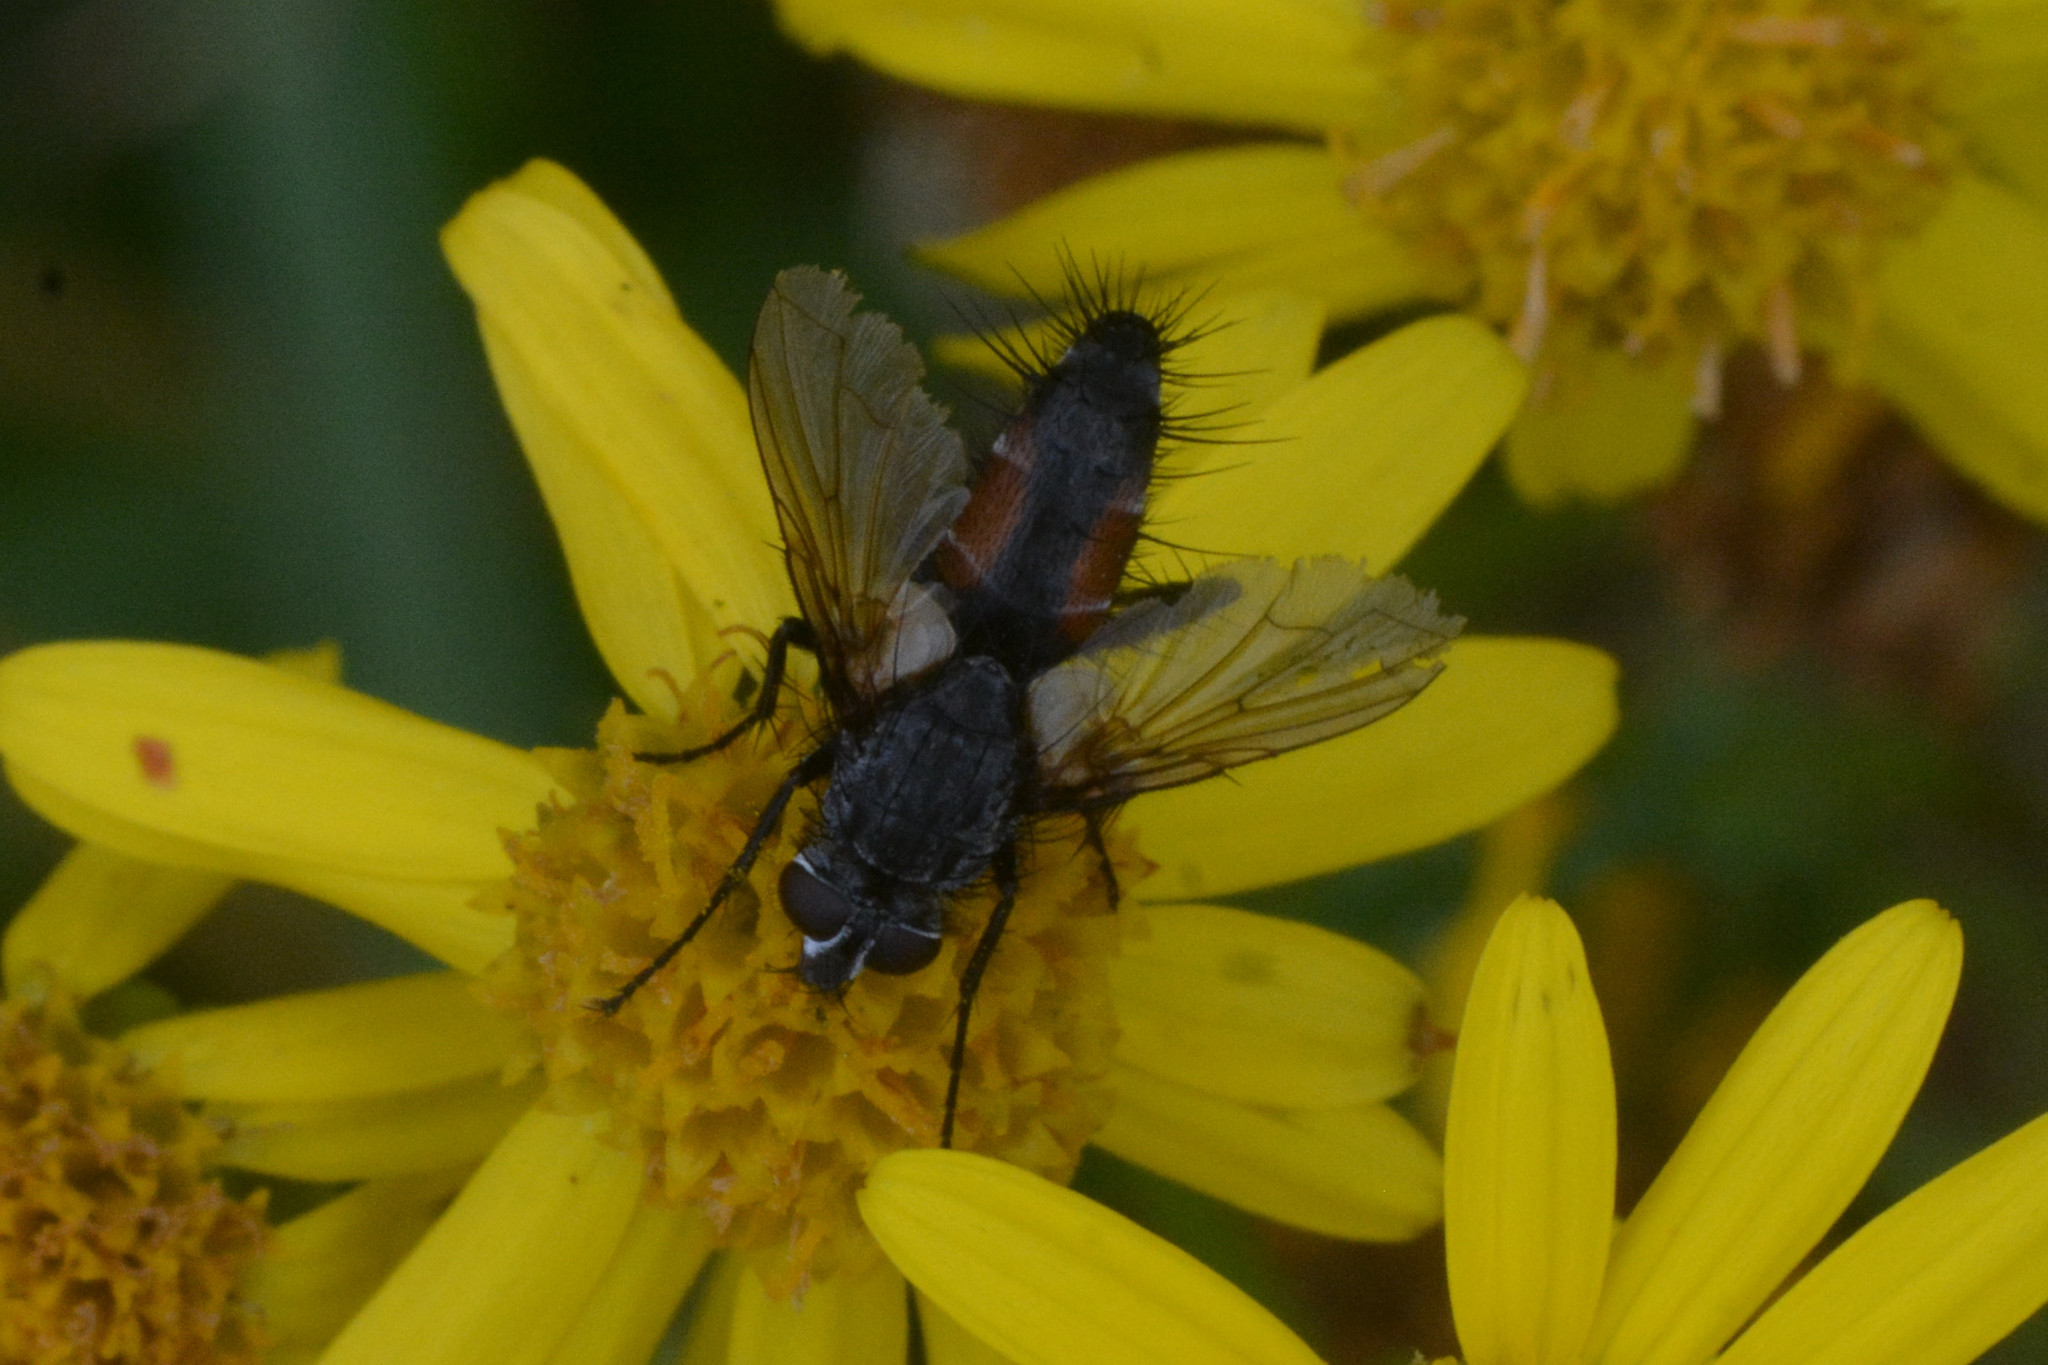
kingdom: Animalia
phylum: Arthropoda
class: Insecta
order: Diptera
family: Tachinidae
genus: Eriothrix
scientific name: Eriothrix rufomaculatus
